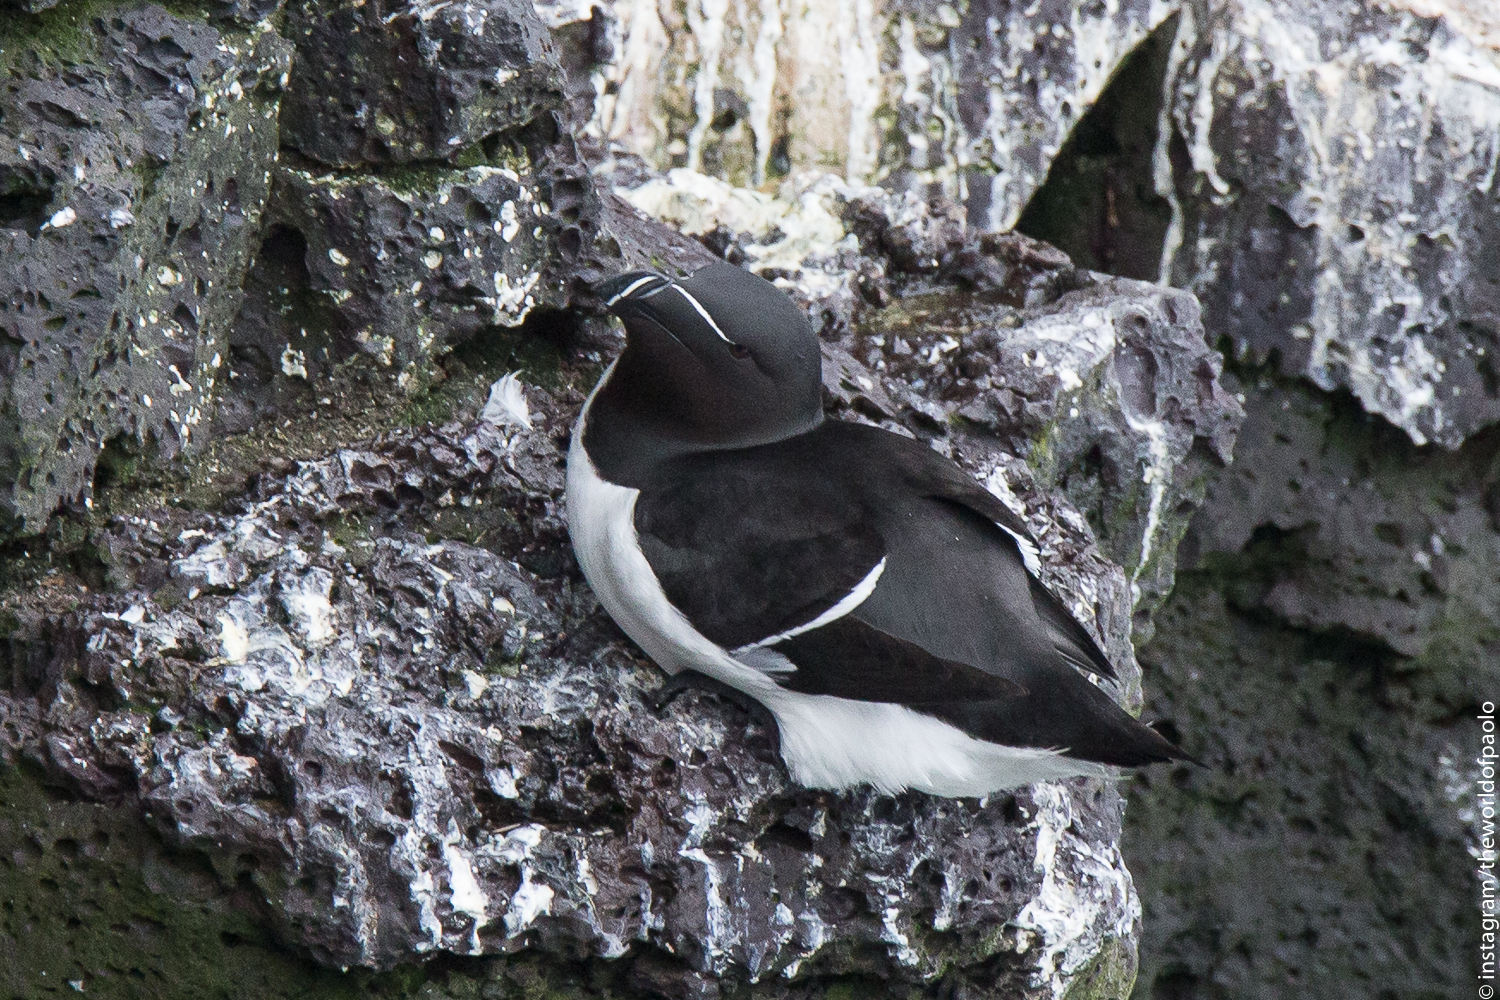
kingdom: Animalia
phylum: Chordata
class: Aves
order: Charadriiformes
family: Alcidae
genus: Alca
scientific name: Alca torda
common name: Razorbill
